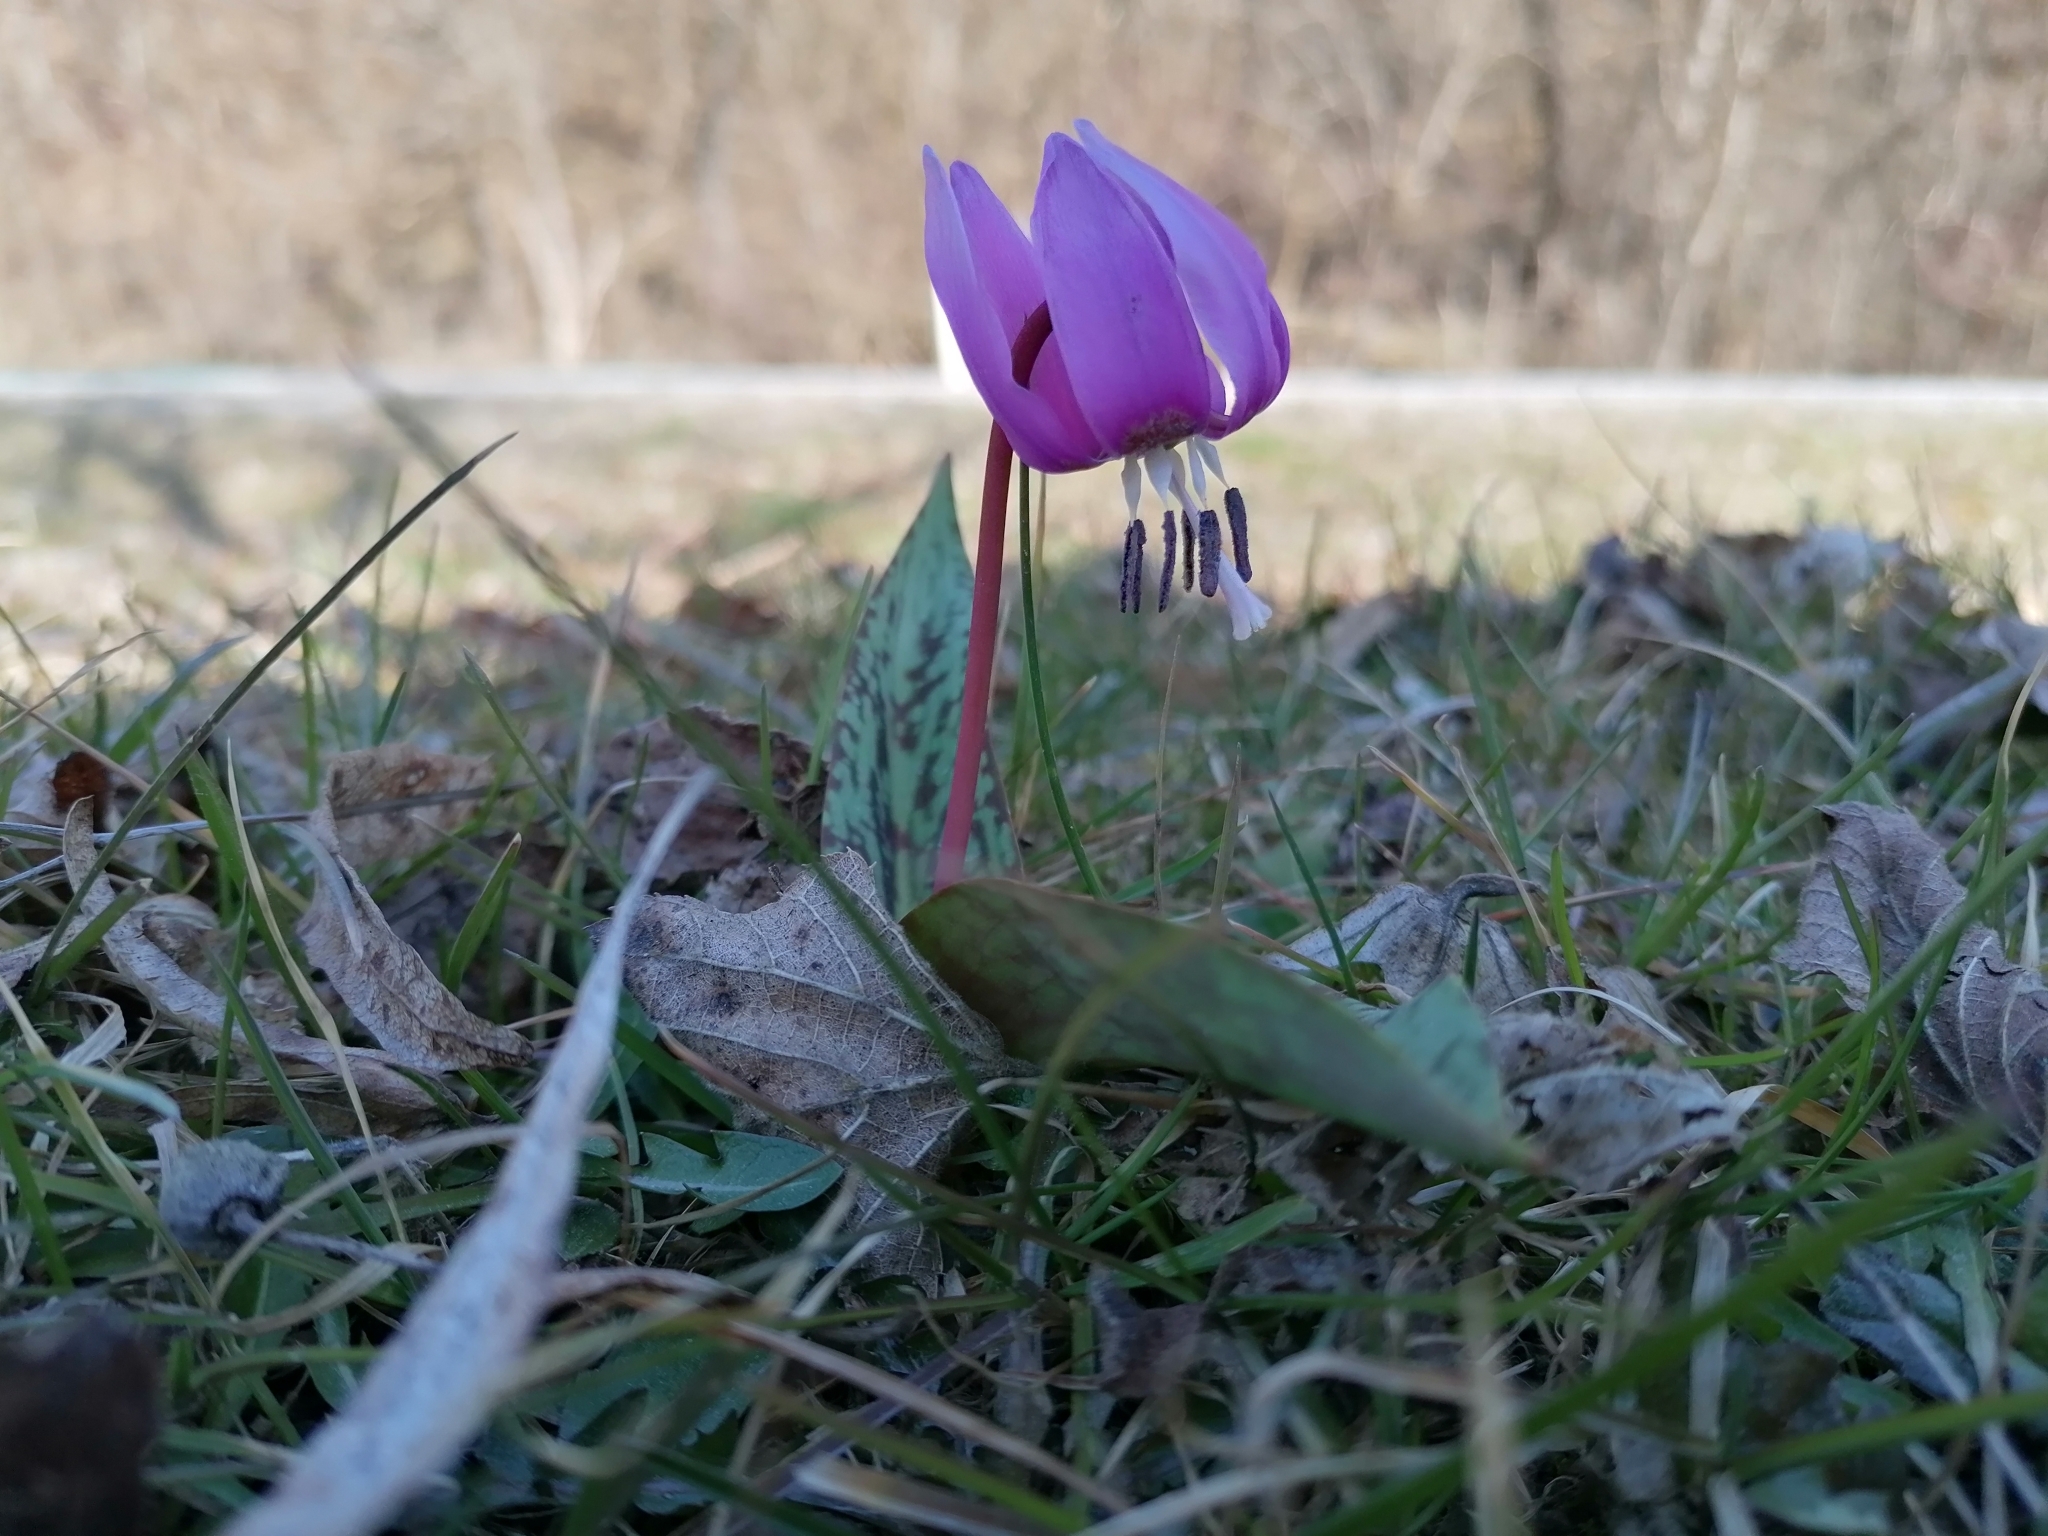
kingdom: Plantae
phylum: Tracheophyta
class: Liliopsida
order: Liliales
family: Liliaceae
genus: Erythronium
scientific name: Erythronium dens-canis
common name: Dog's-tooth-violet
